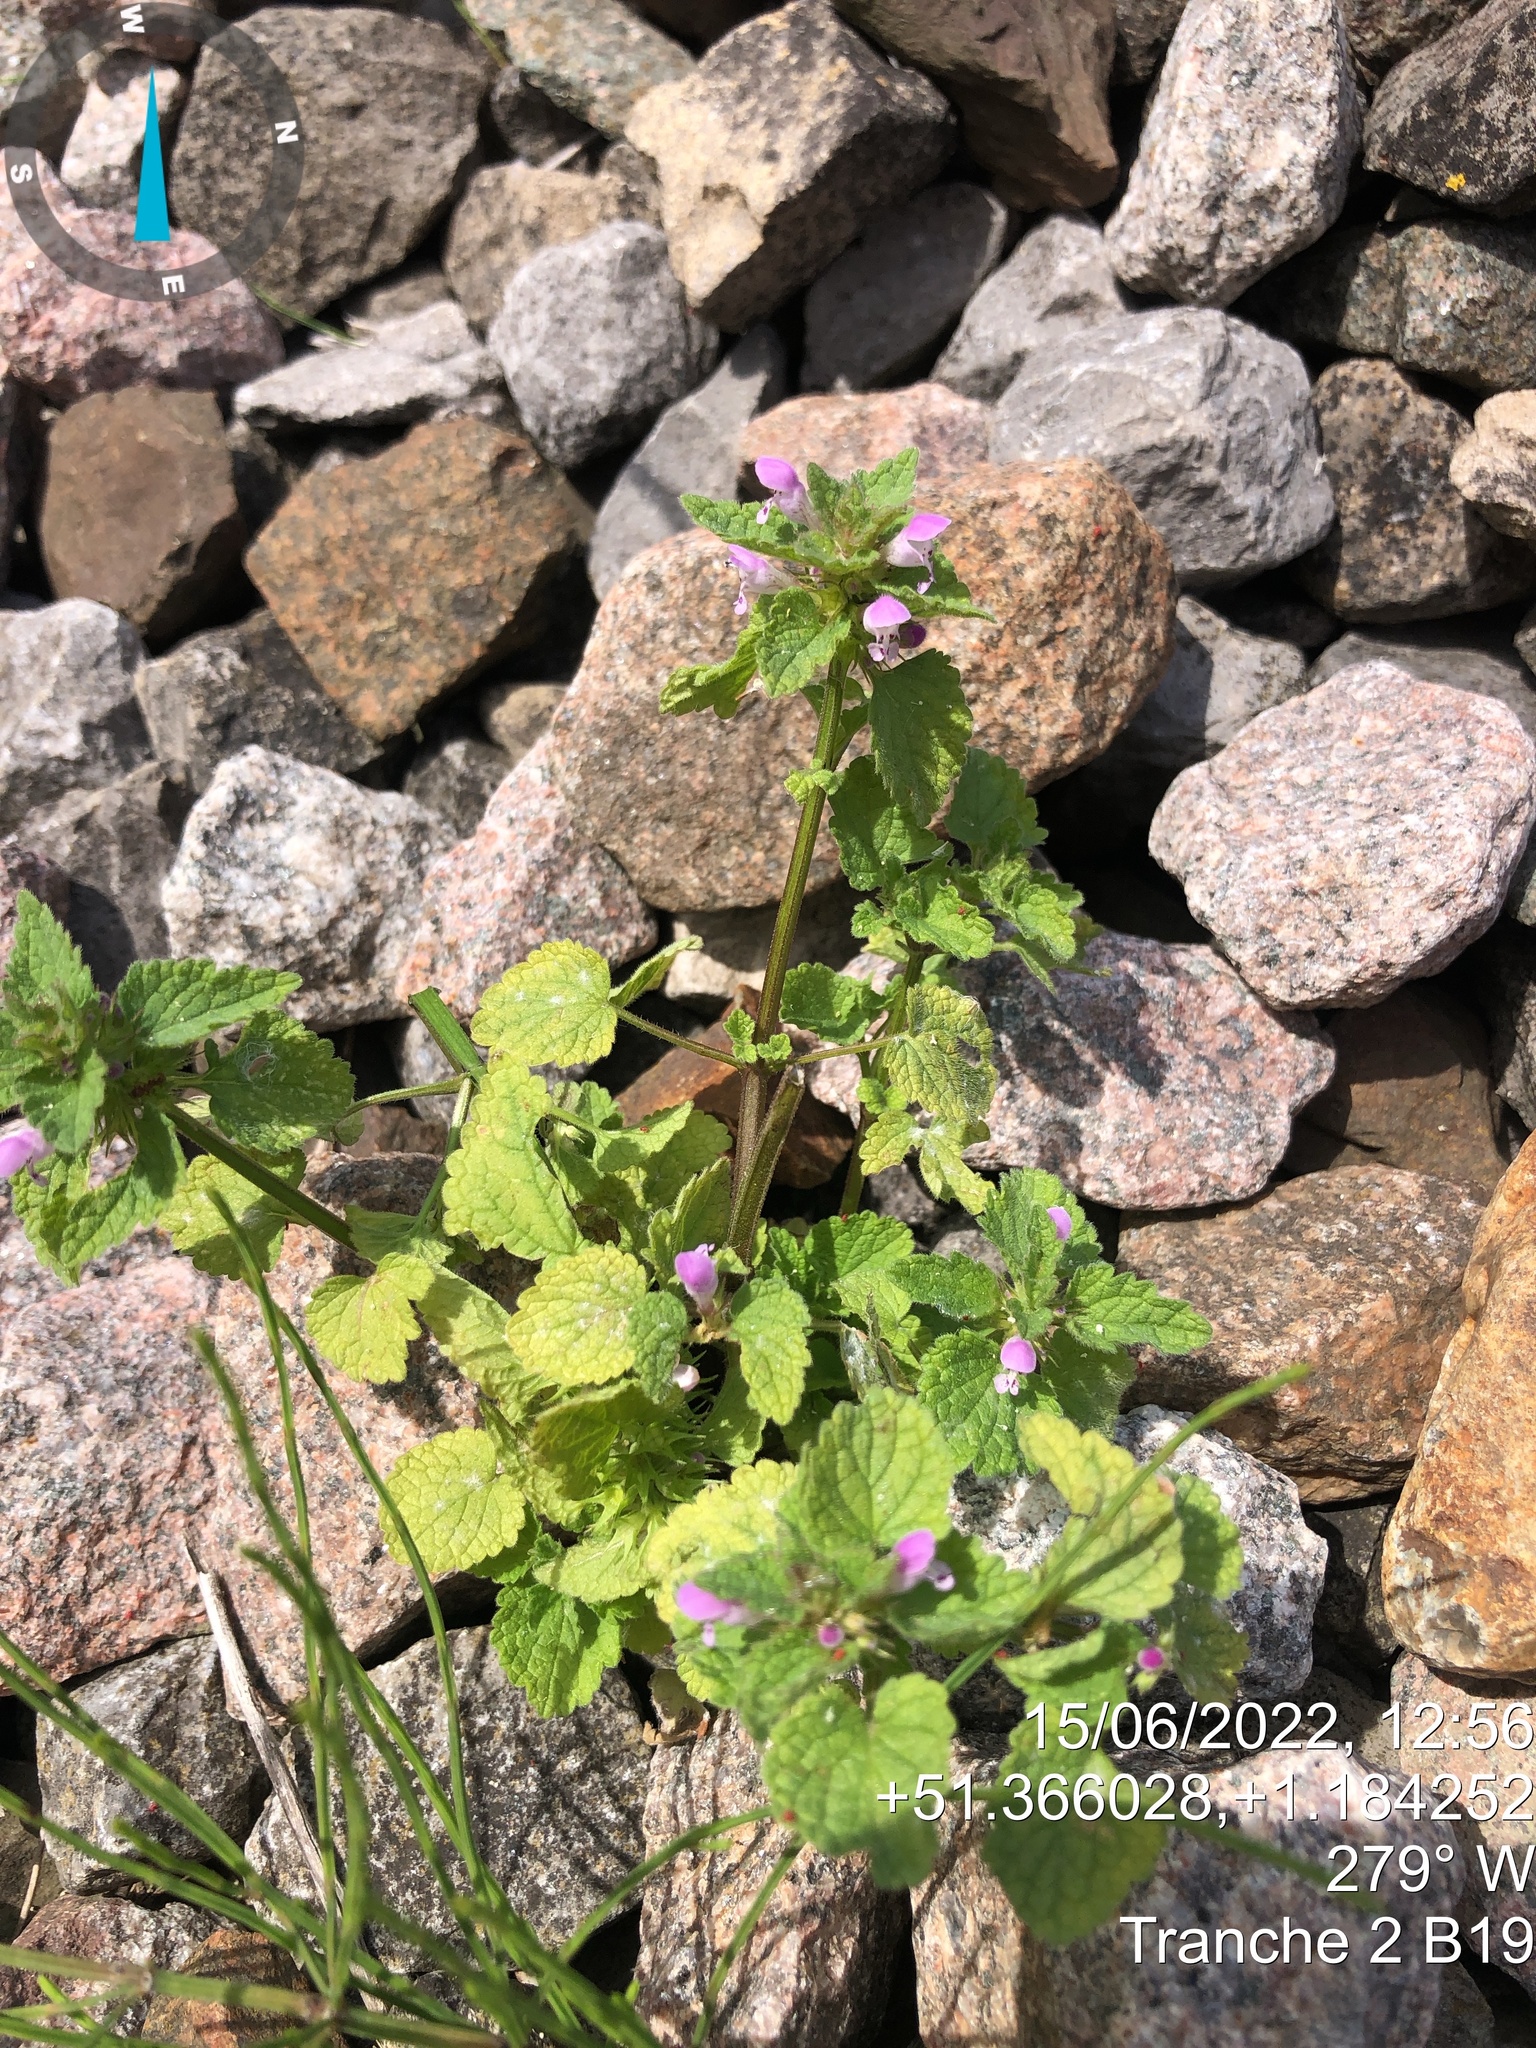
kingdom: Plantae
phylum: Tracheophyta
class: Magnoliopsida
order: Lamiales
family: Lamiaceae
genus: Lamium
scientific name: Lamium purpureum
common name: Red dead-nettle
